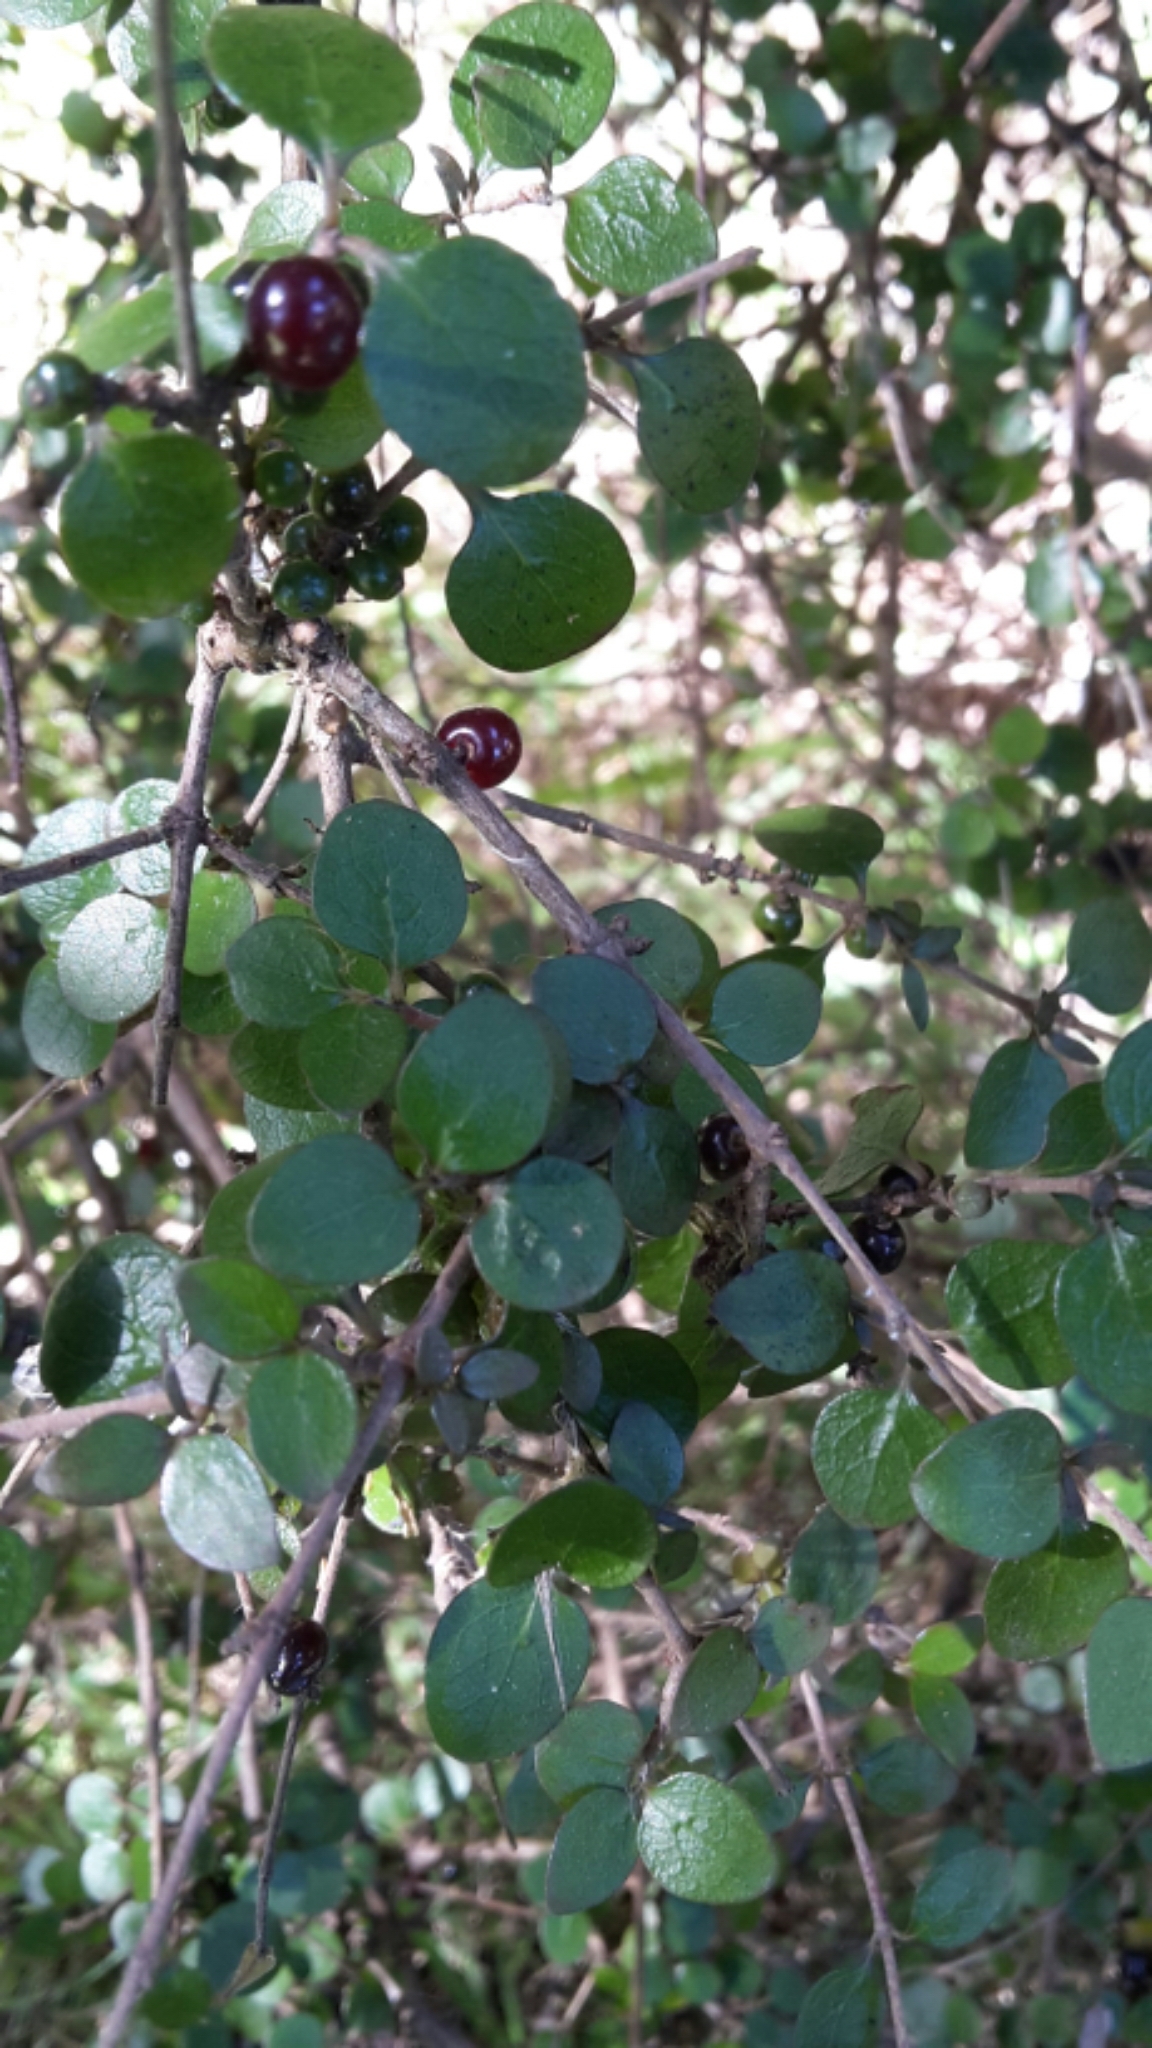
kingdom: Plantae
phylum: Tracheophyta
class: Magnoliopsida
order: Gentianales
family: Rubiaceae
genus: Coprosma
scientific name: Coprosma rhamnoides
